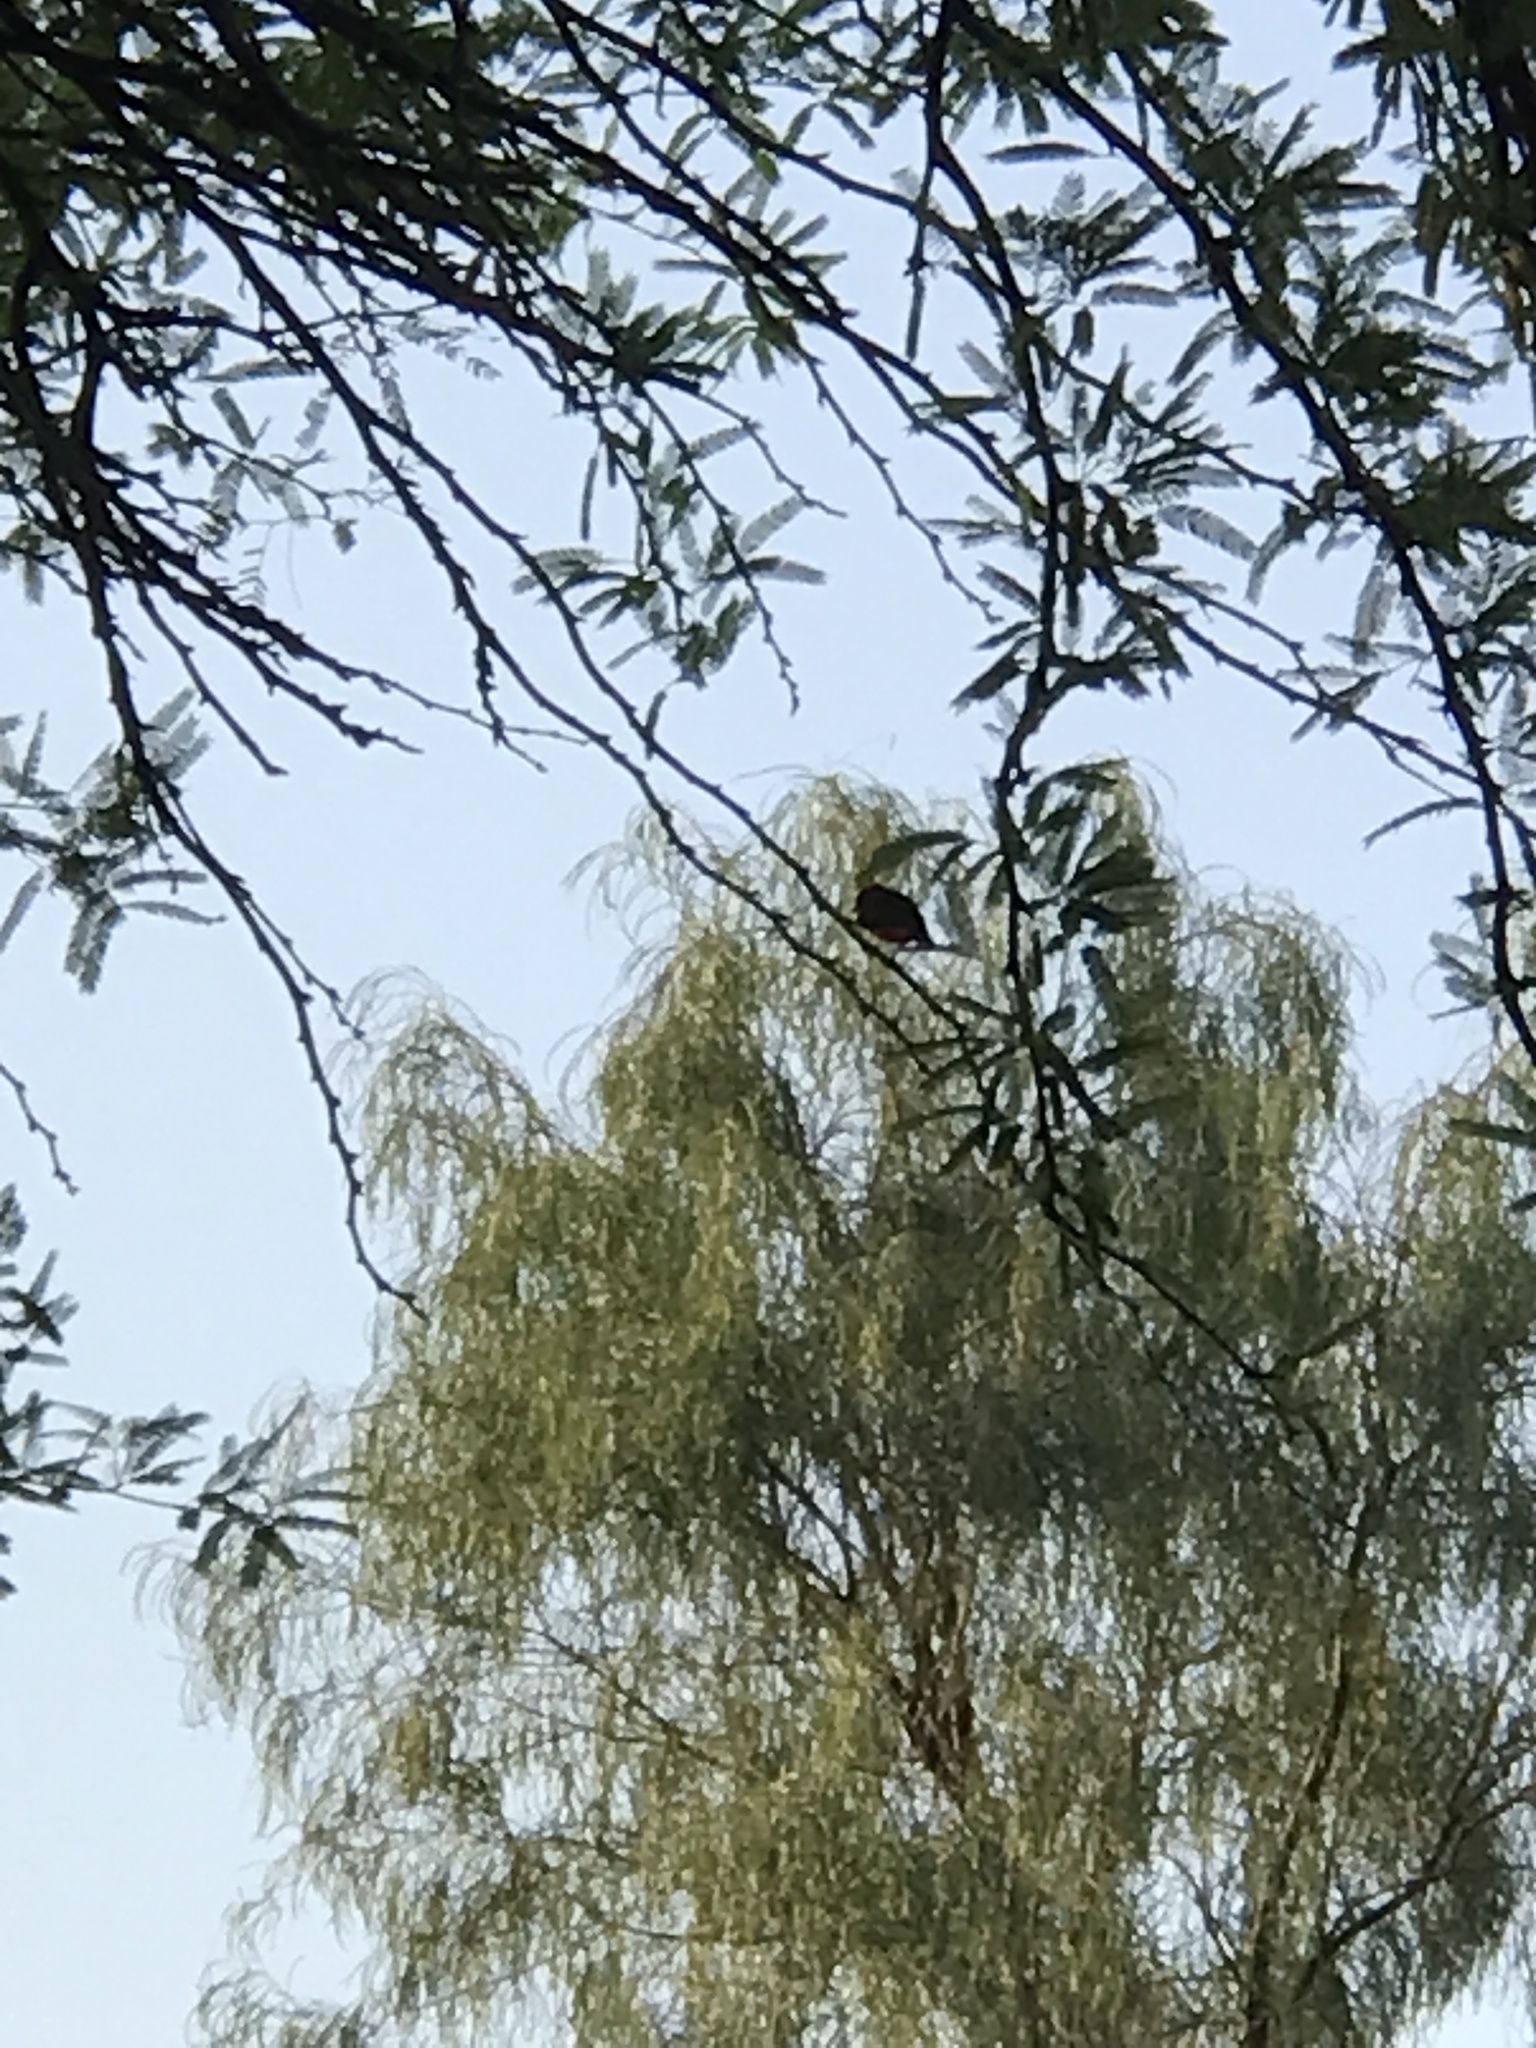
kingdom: Animalia
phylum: Chordata
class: Aves
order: Passeriformes
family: Tyrannidae
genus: Pyrocephalus
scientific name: Pyrocephalus rubinus
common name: Vermilion flycatcher
